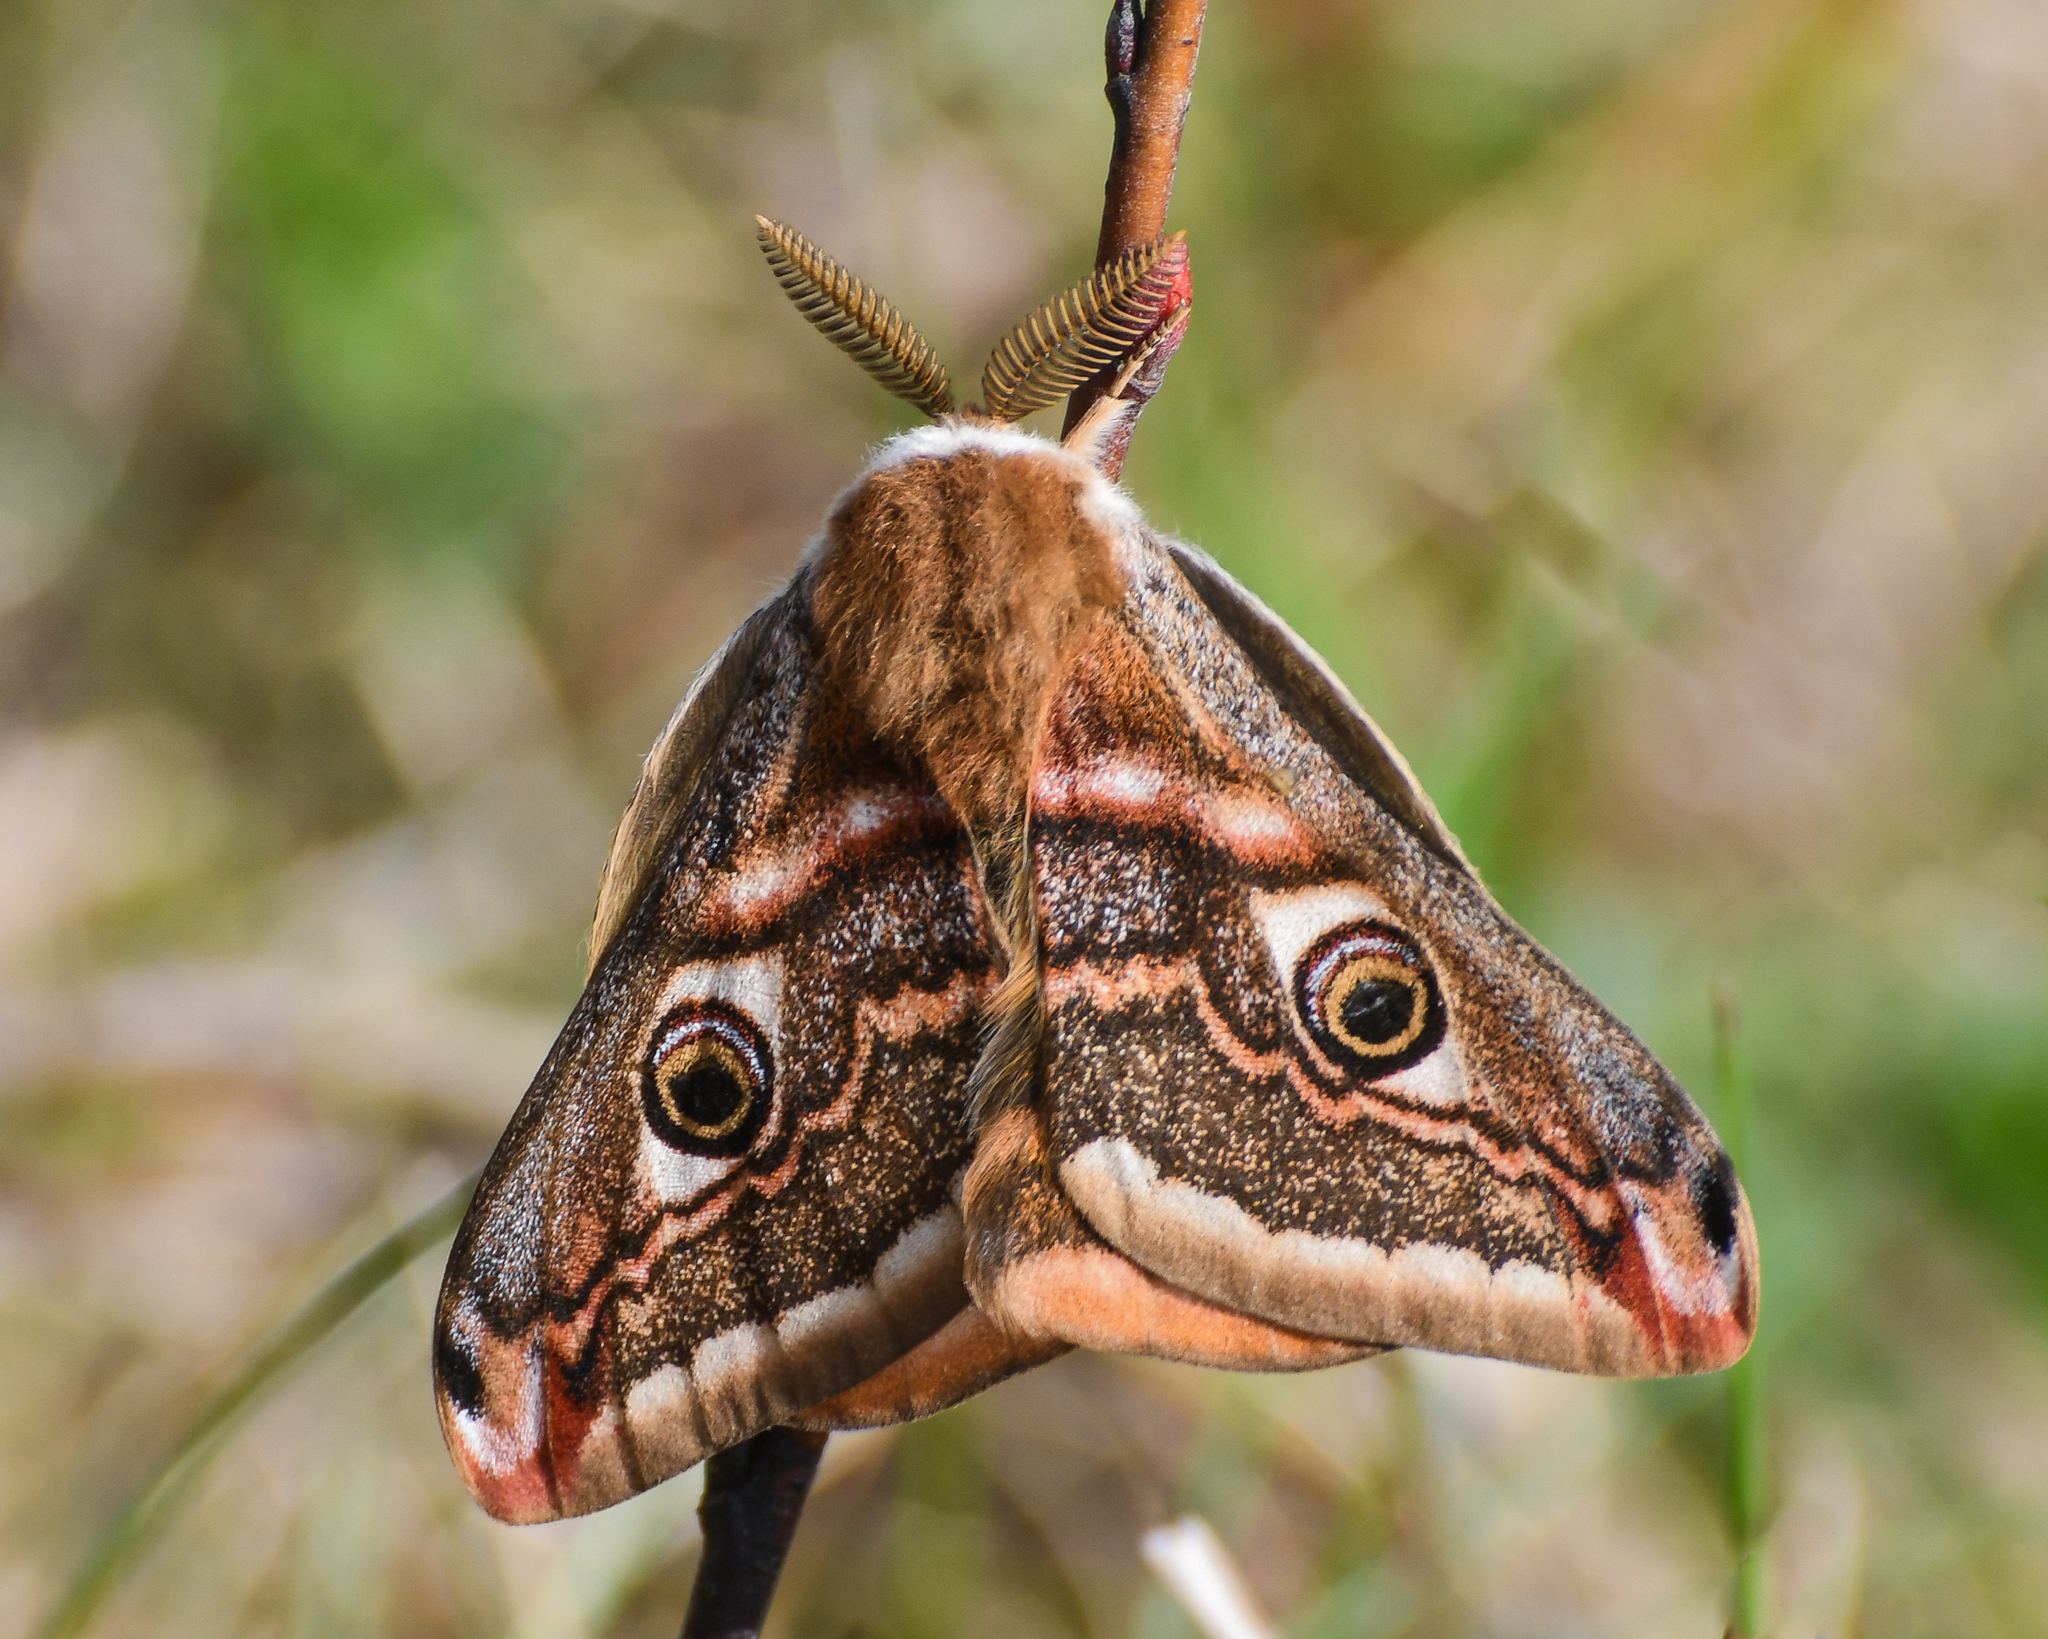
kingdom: Animalia
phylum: Arthropoda
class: Insecta
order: Lepidoptera
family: Saturniidae
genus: Saturnia
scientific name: Saturnia pavonia
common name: Emperor moth
